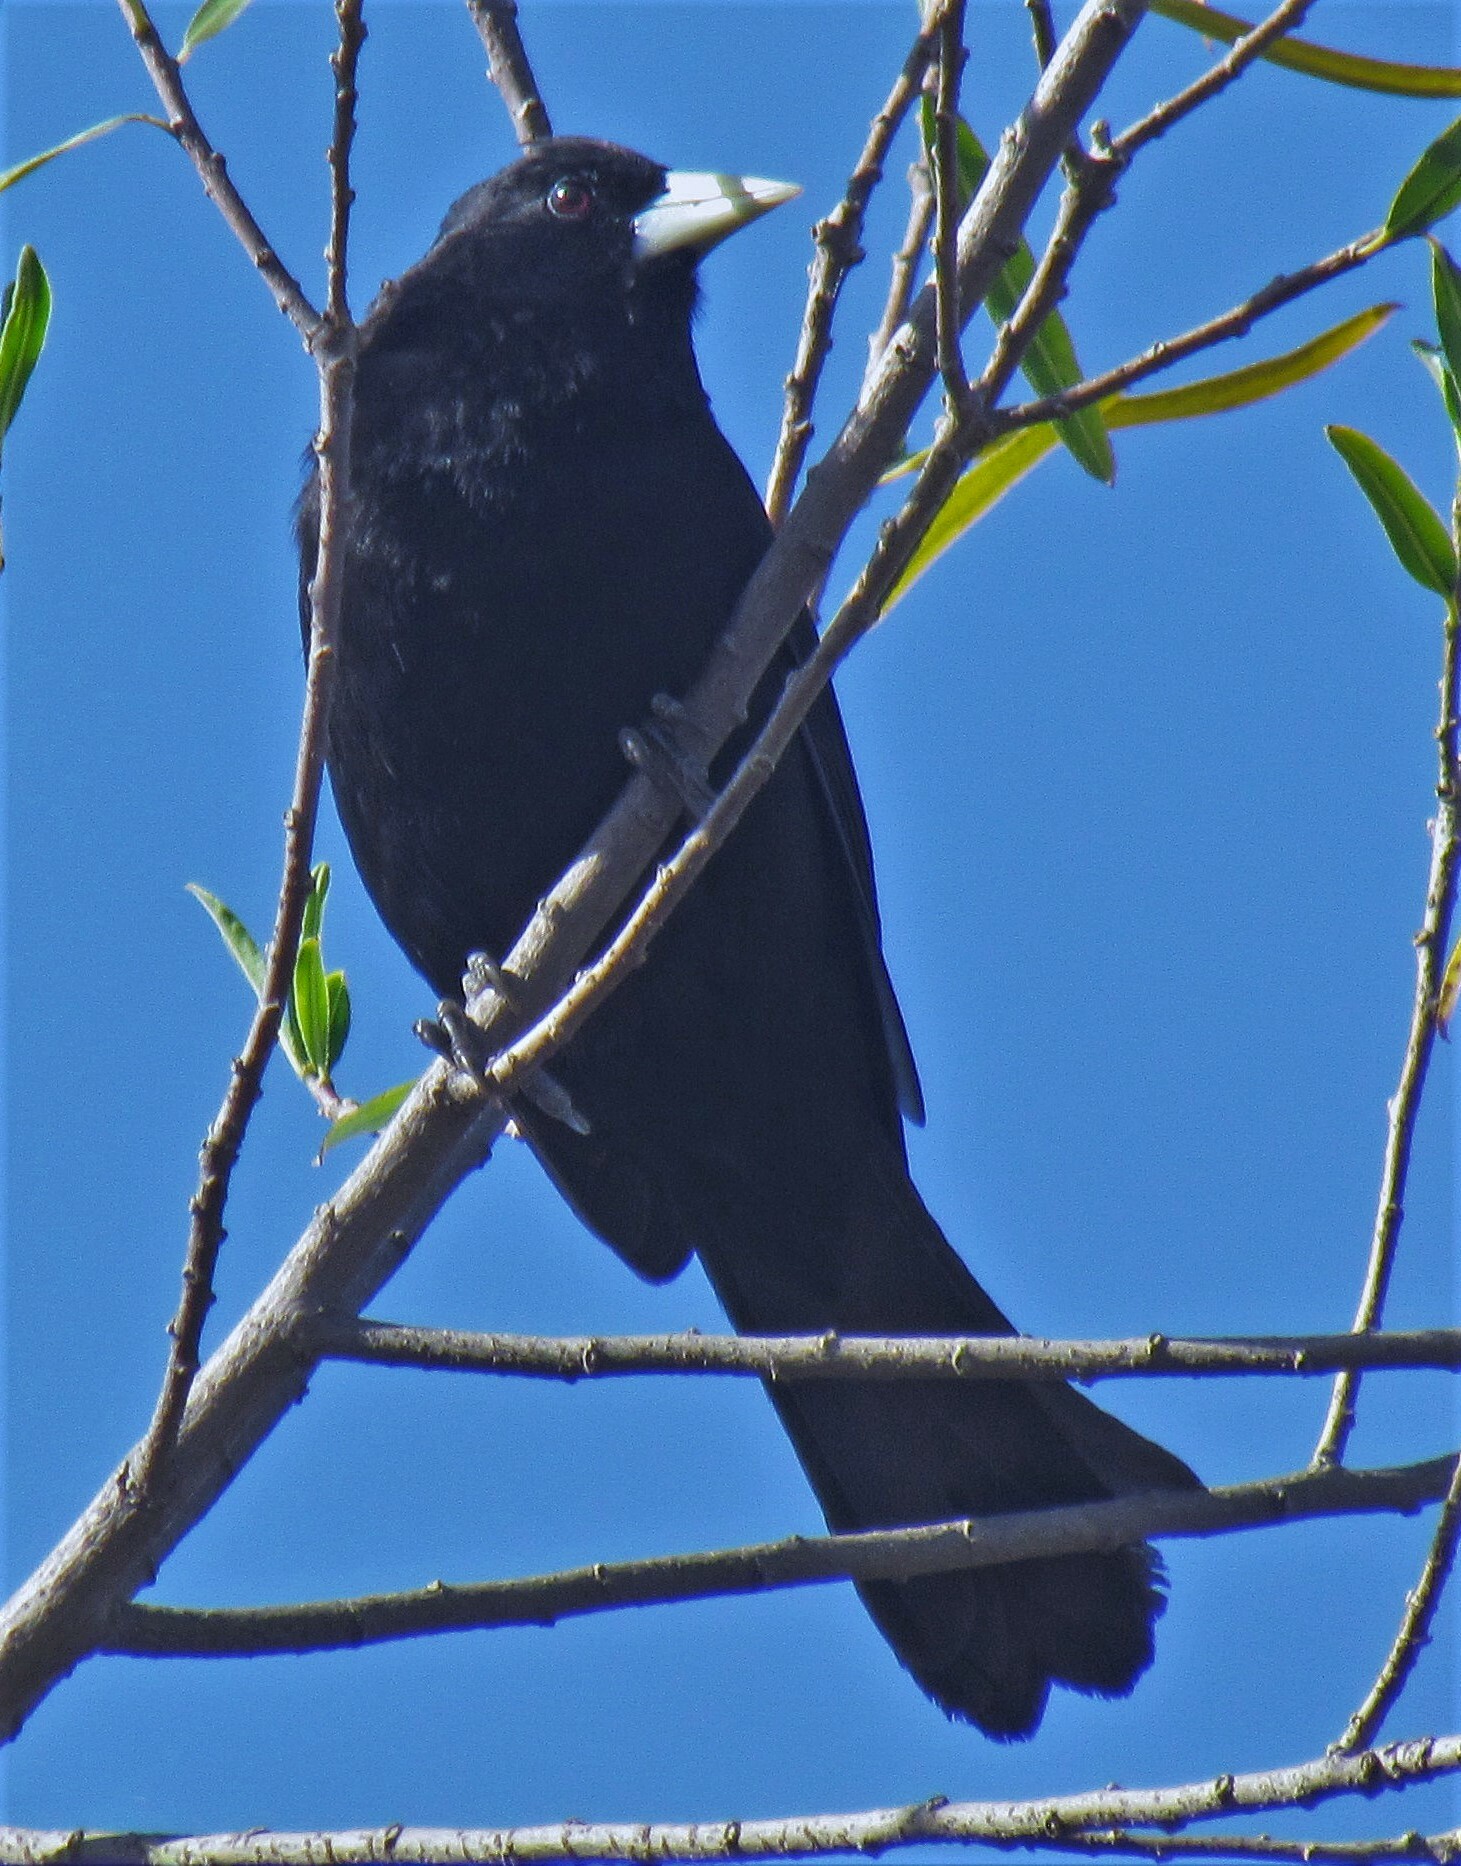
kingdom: Animalia
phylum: Chordata
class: Aves
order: Passeriformes
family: Icteridae
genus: Cacicus
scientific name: Cacicus solitarius
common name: Solitary cacique
